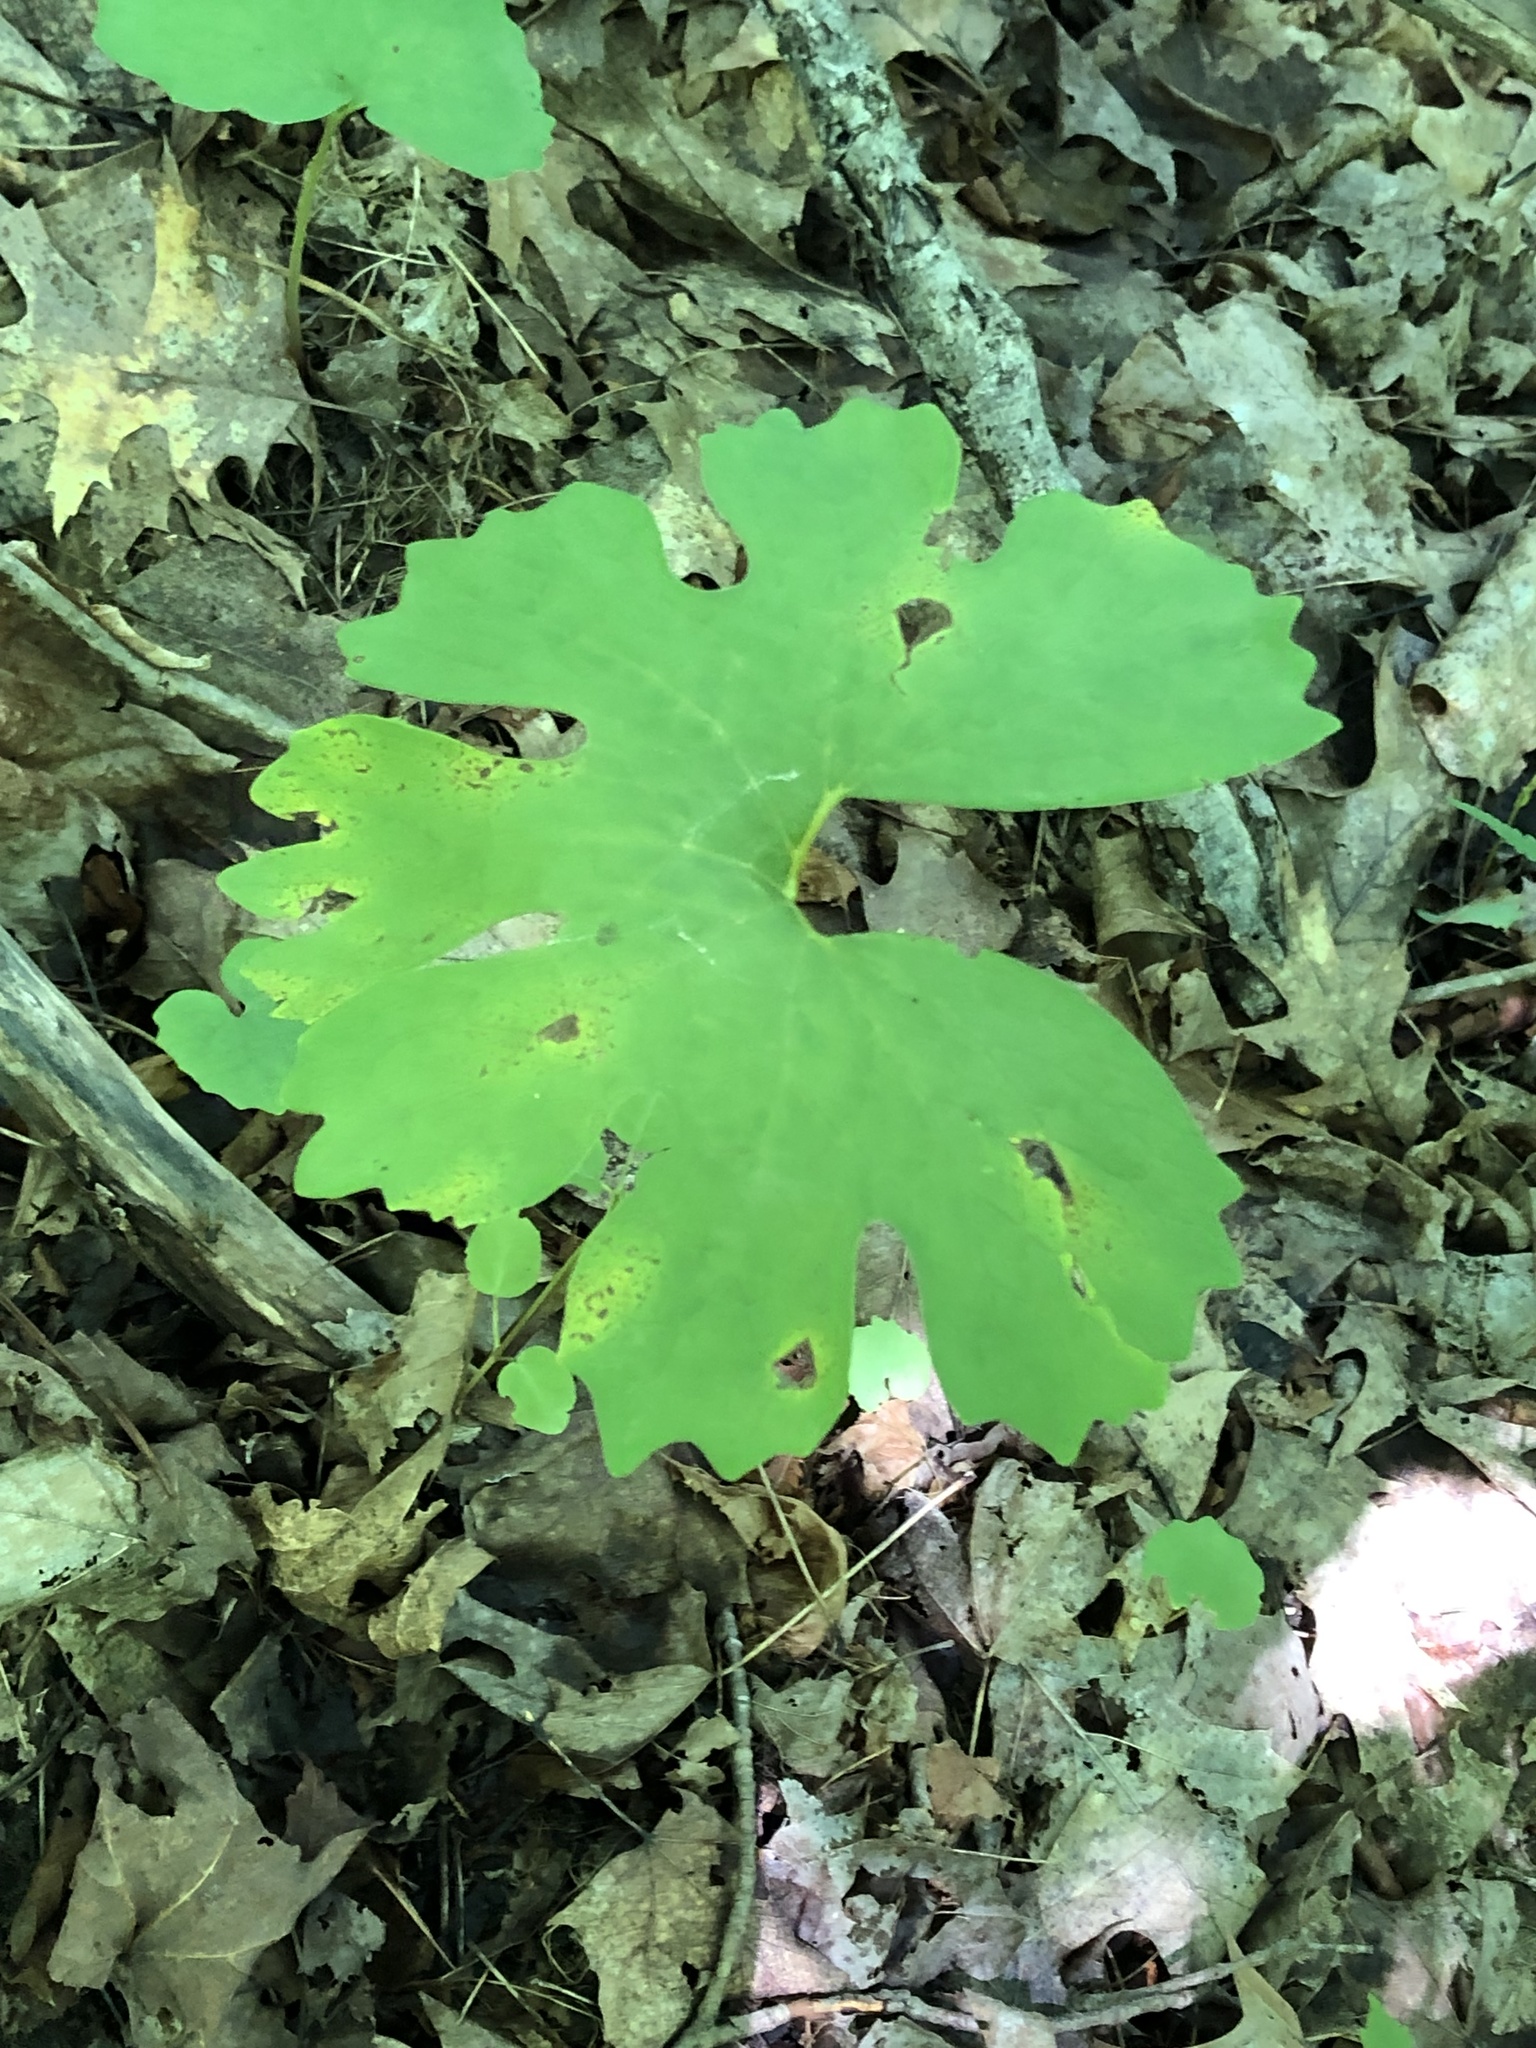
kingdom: Plantae
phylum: Tracheophyta
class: Magnoliopsida
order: Ranunculales
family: Papaveraceae
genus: Sanguinaria
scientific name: Sanguinaria canadensis
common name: Bloodroot
